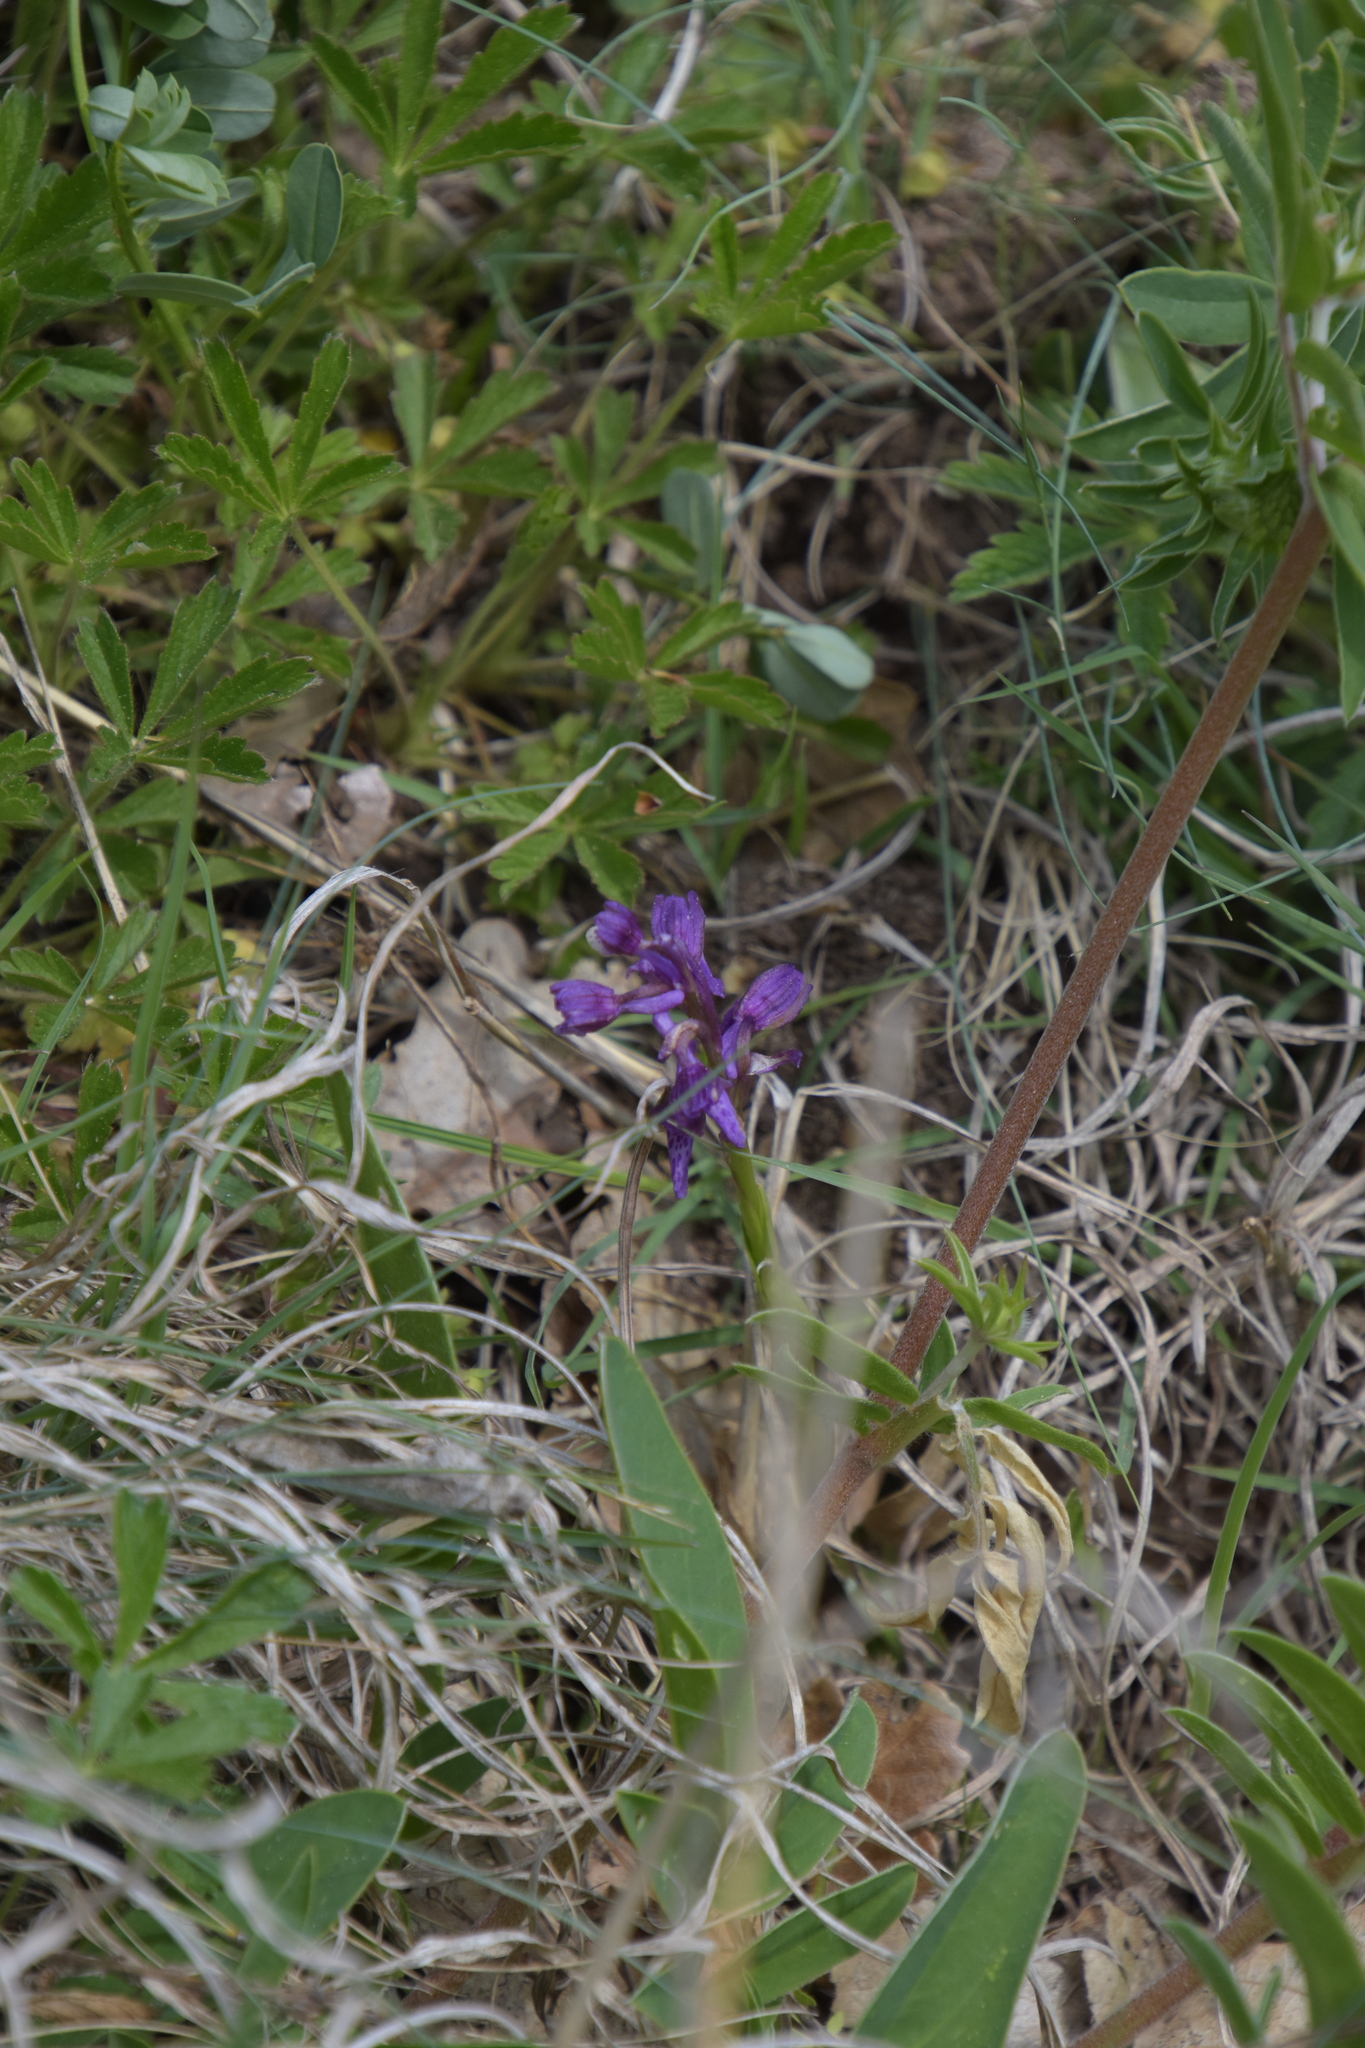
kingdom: Plantae
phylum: Tracheophyta
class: Liliopsida
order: Asparagales
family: Orchidaceae
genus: Anacamptis
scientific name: Anacamptis morio
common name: Green-winged orchid
